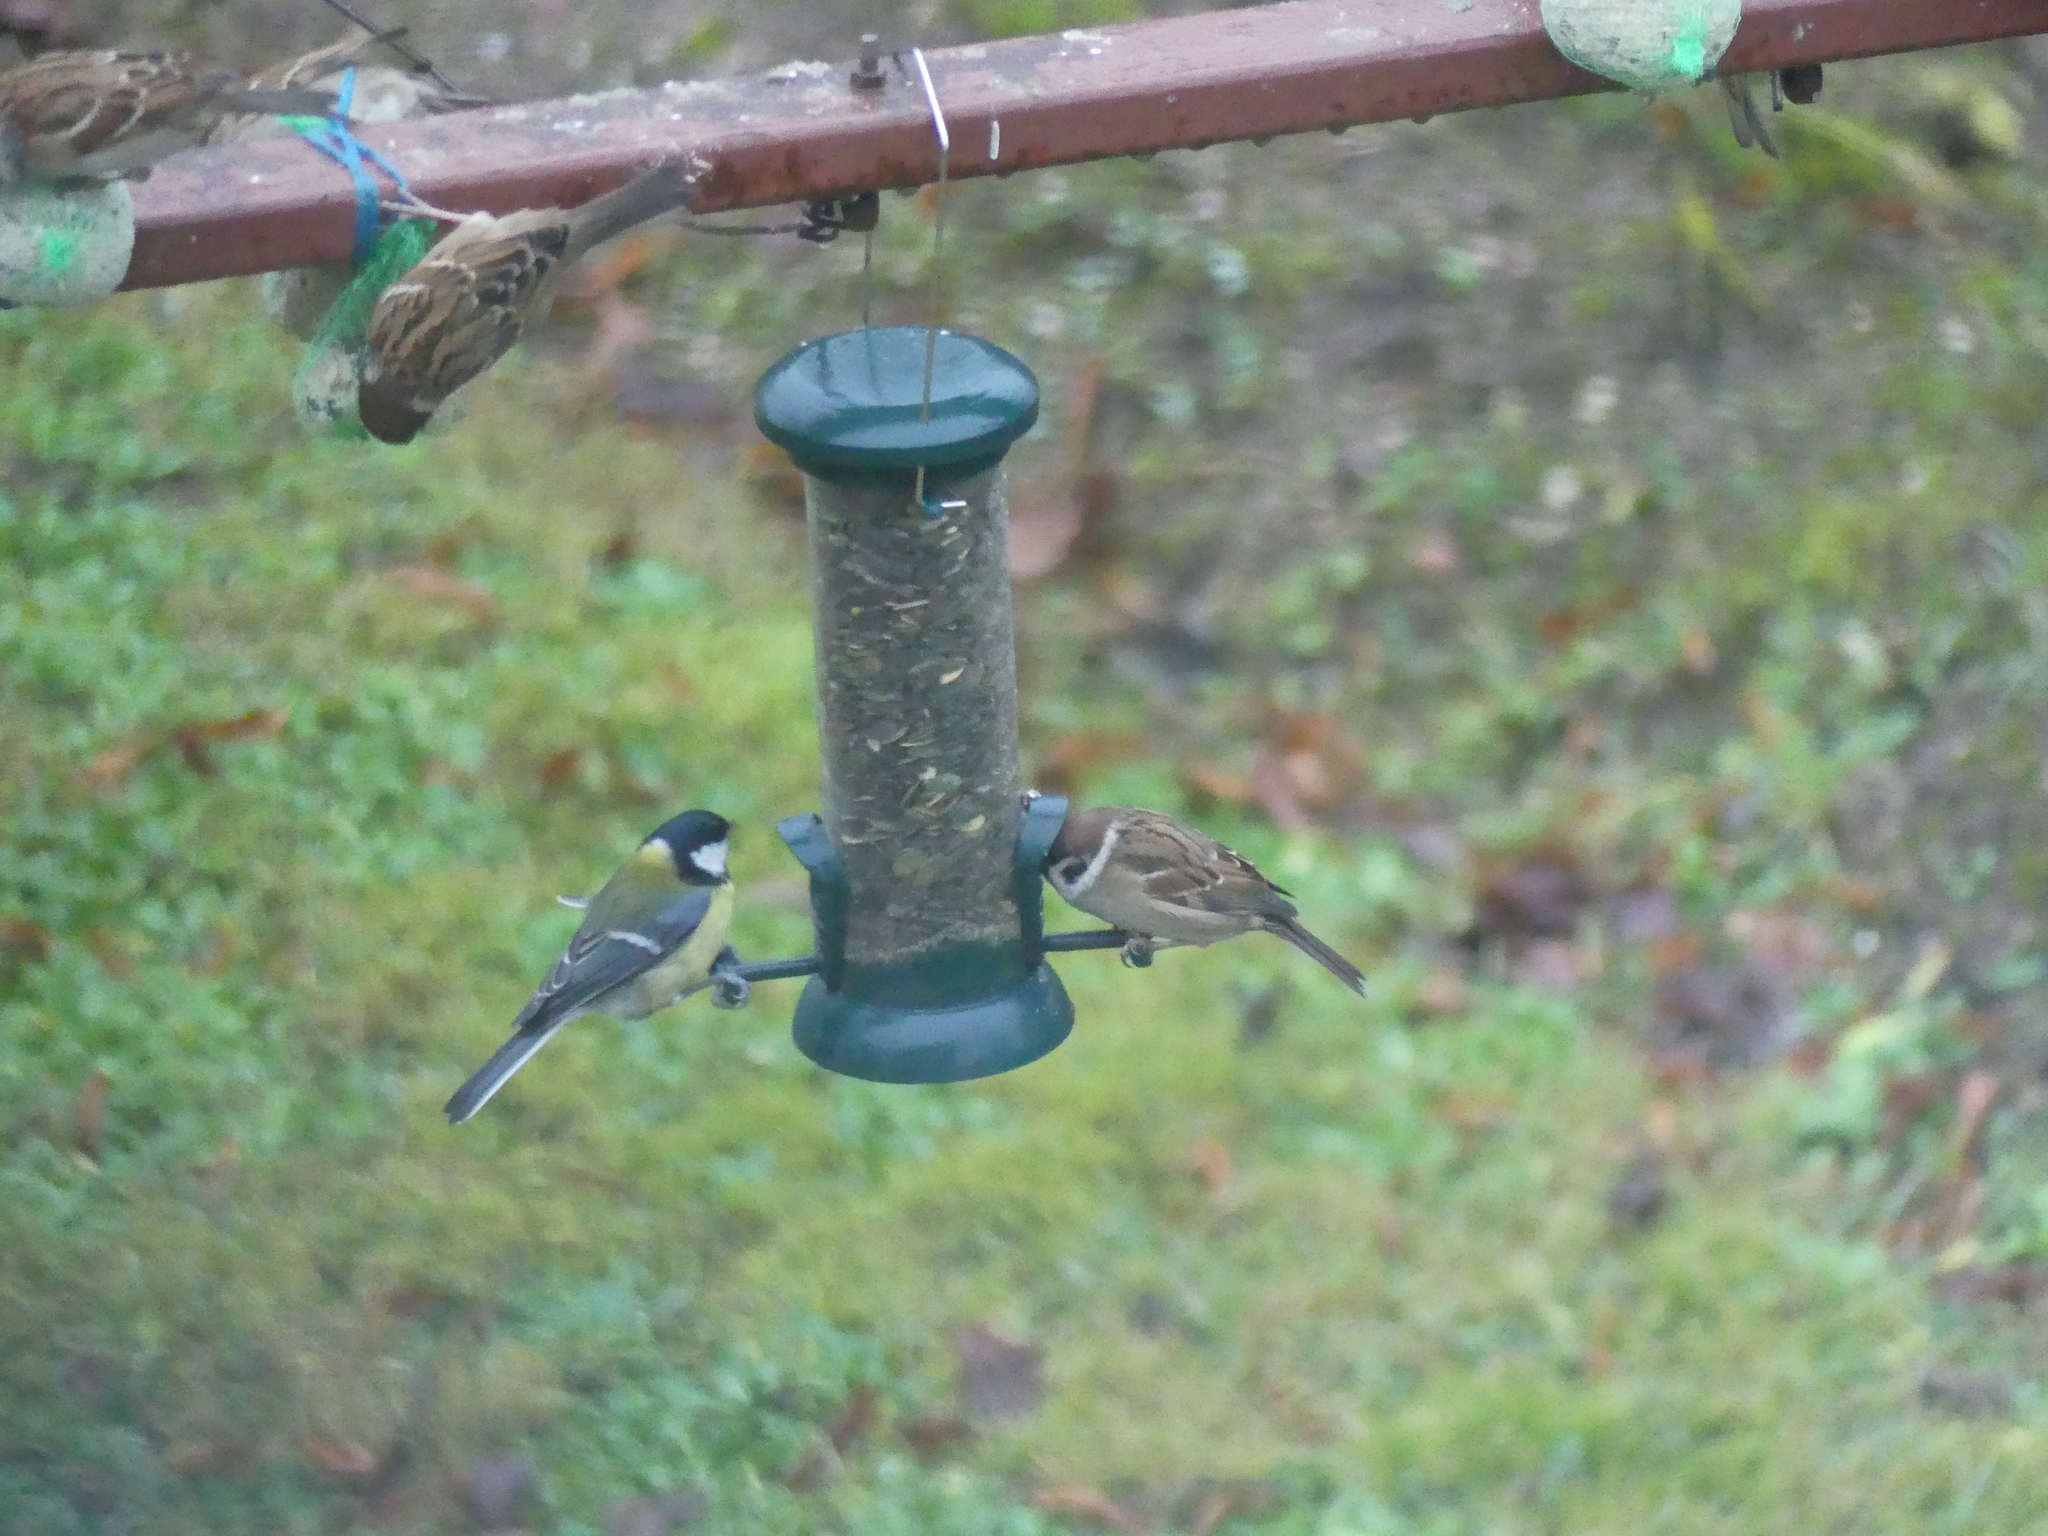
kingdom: Animalia
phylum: Chordata
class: Aves
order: Passeriformes
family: Paridae
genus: Parus
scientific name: Parus major
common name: Great tit
